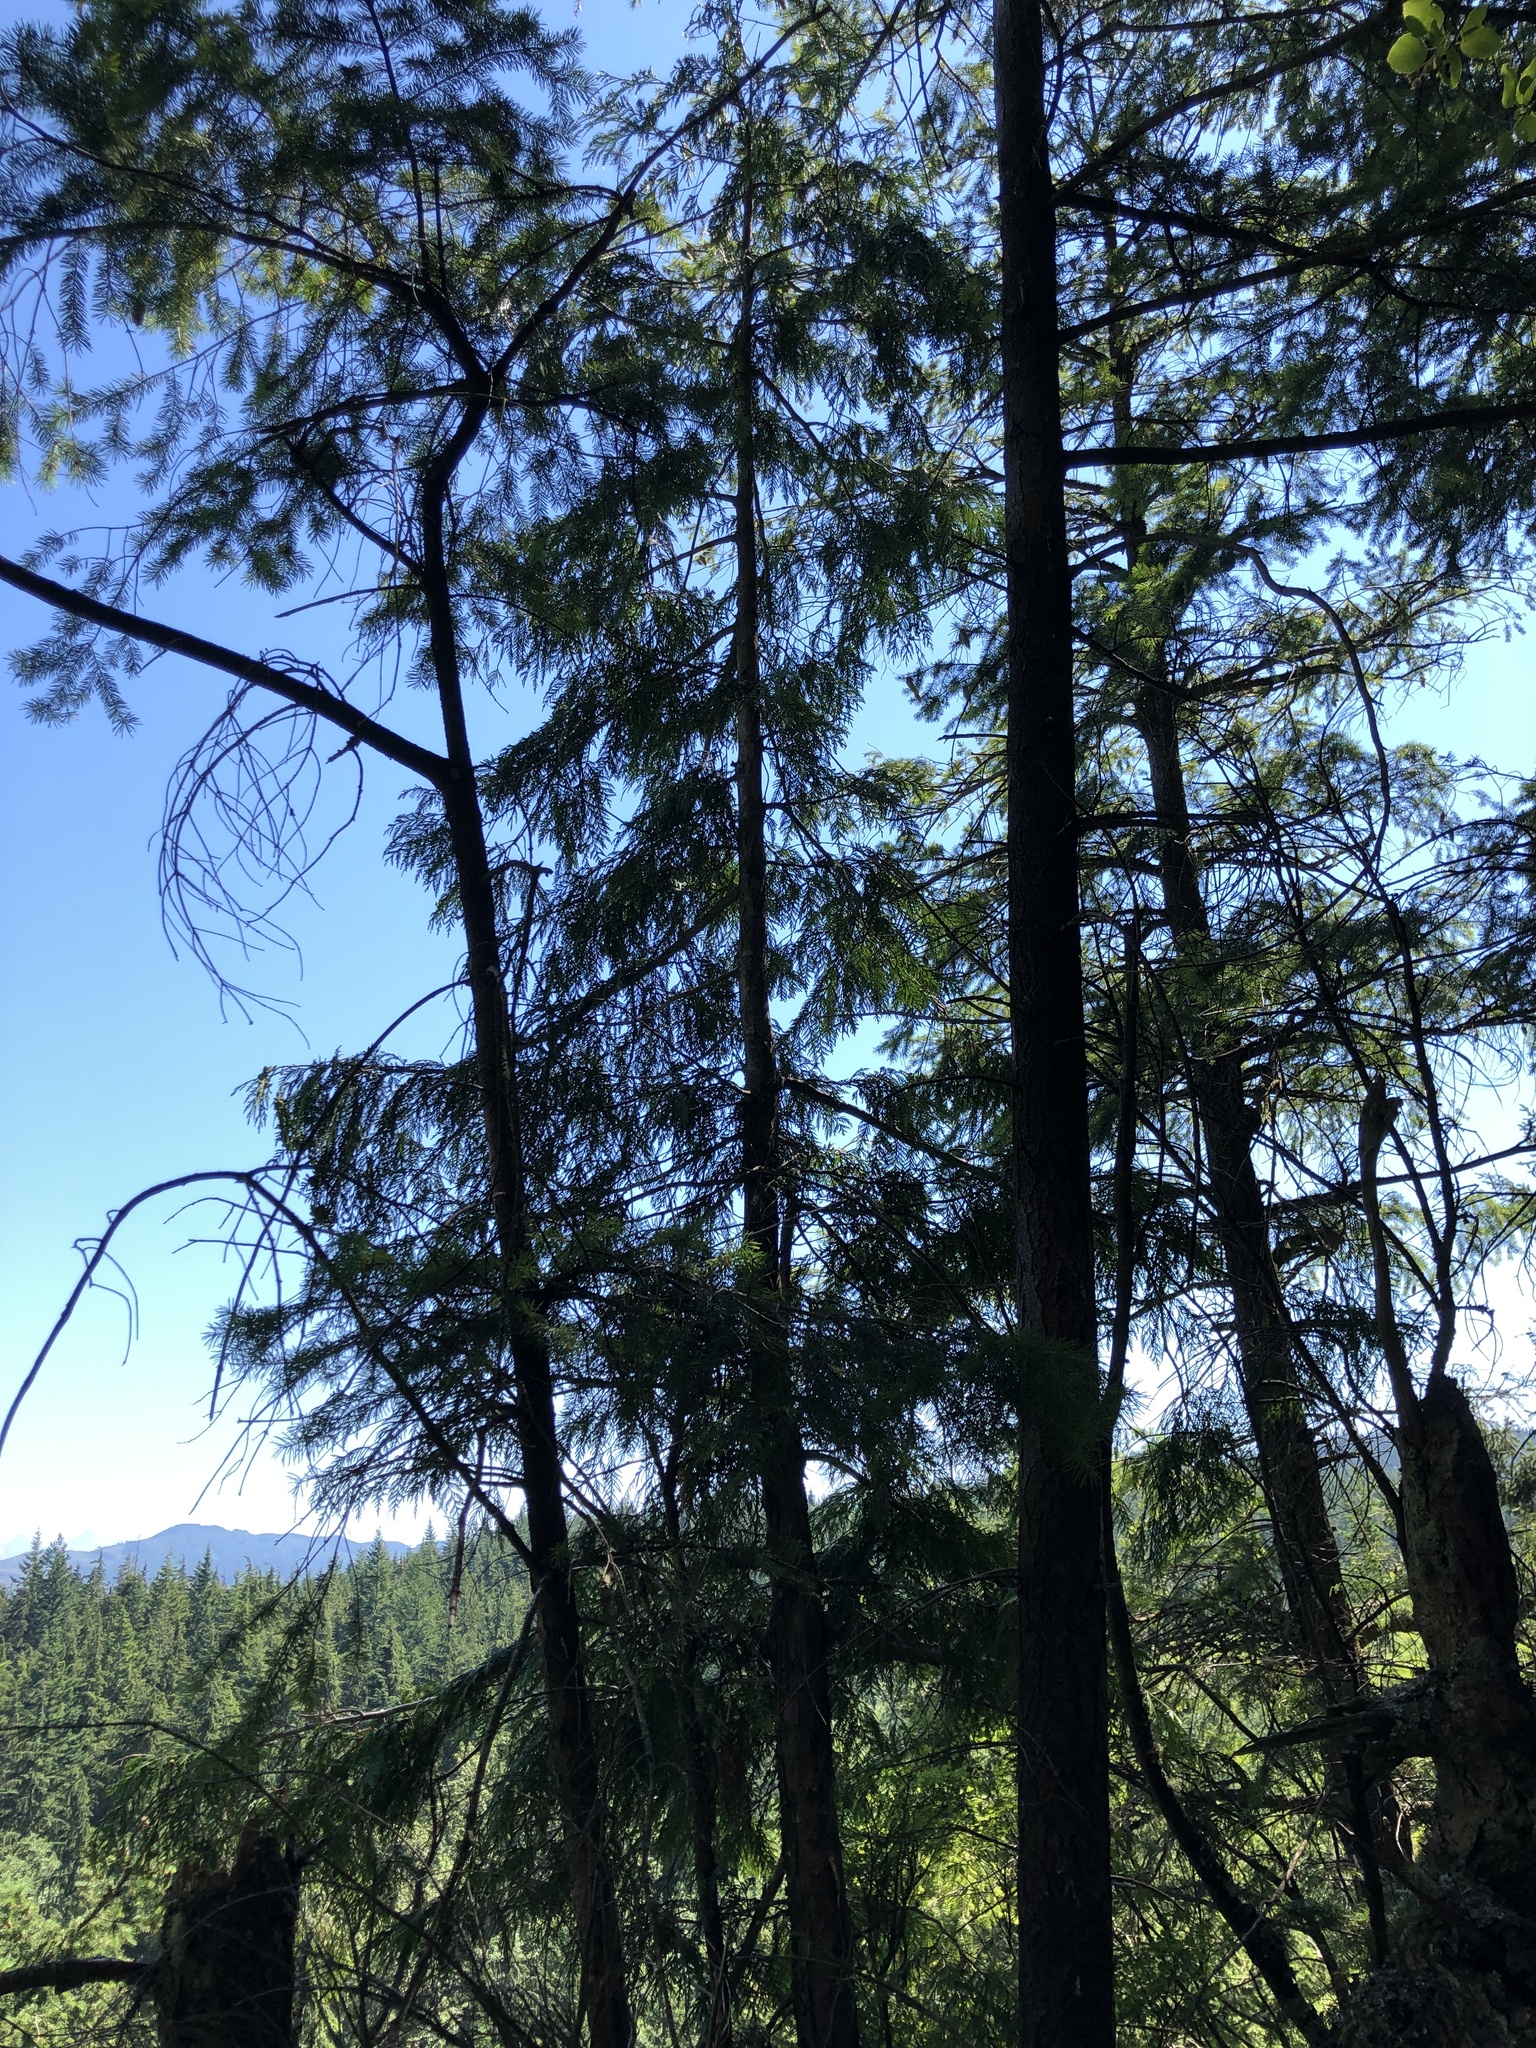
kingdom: Plantae
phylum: Tracheophyta
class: Pinopsida
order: Pinales
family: Cupressaceae
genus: Thuja
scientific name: Thuja plicata
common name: Western red-cedar
